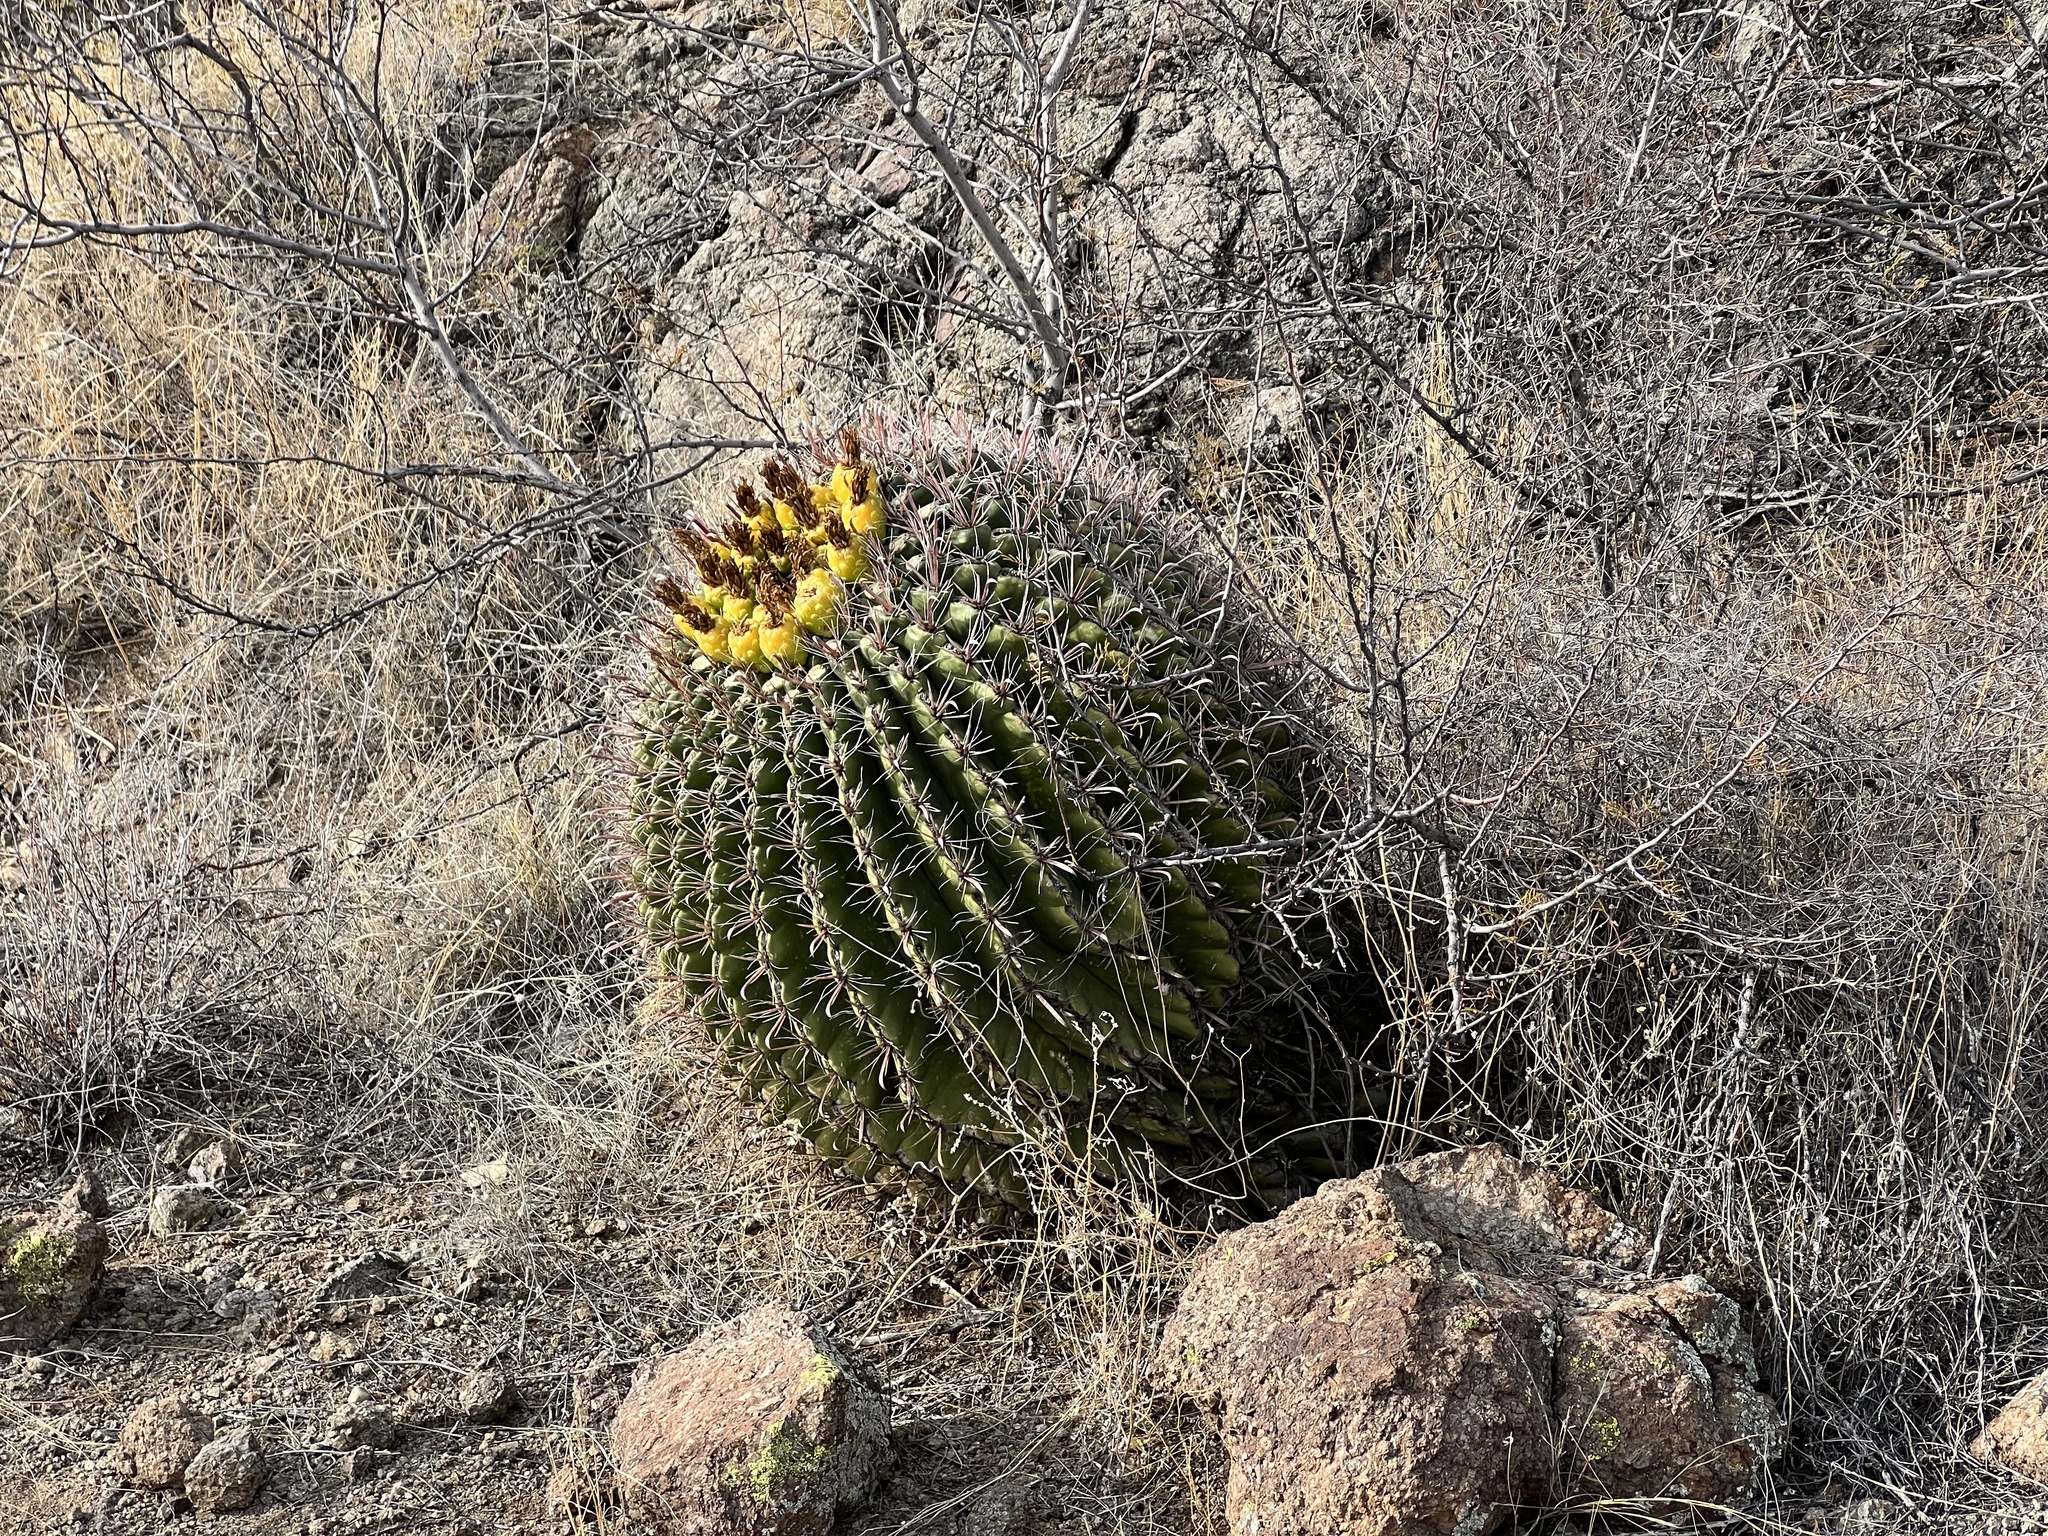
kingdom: Plantae
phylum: Tracheophyta
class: Magnoliopsida
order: Caryophyllales
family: Cactaceae
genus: Ferocactus
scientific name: Ferocactus wislizeni
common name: Candy barrel cactus
